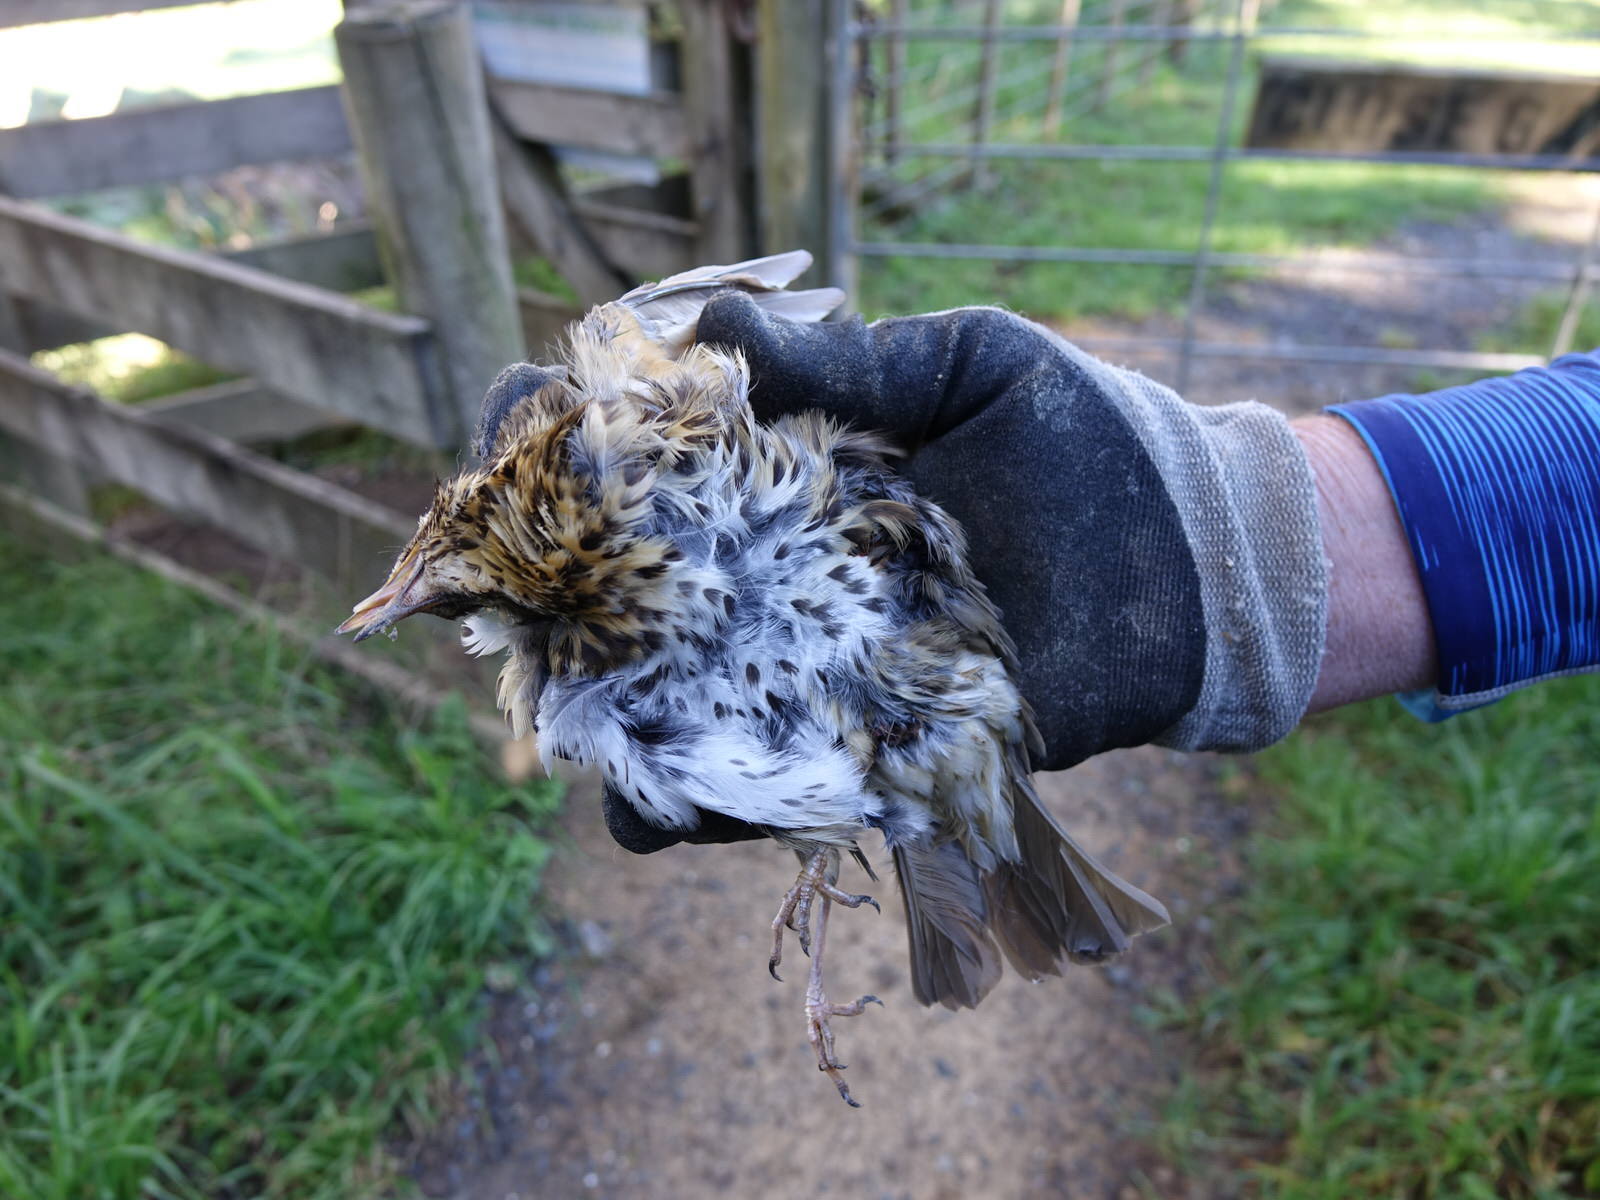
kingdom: Animalia
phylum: Chordata
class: Aves
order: Passeriformes
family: Turdidae
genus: Turdus
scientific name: Turdus philomelos
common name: Song thrush
